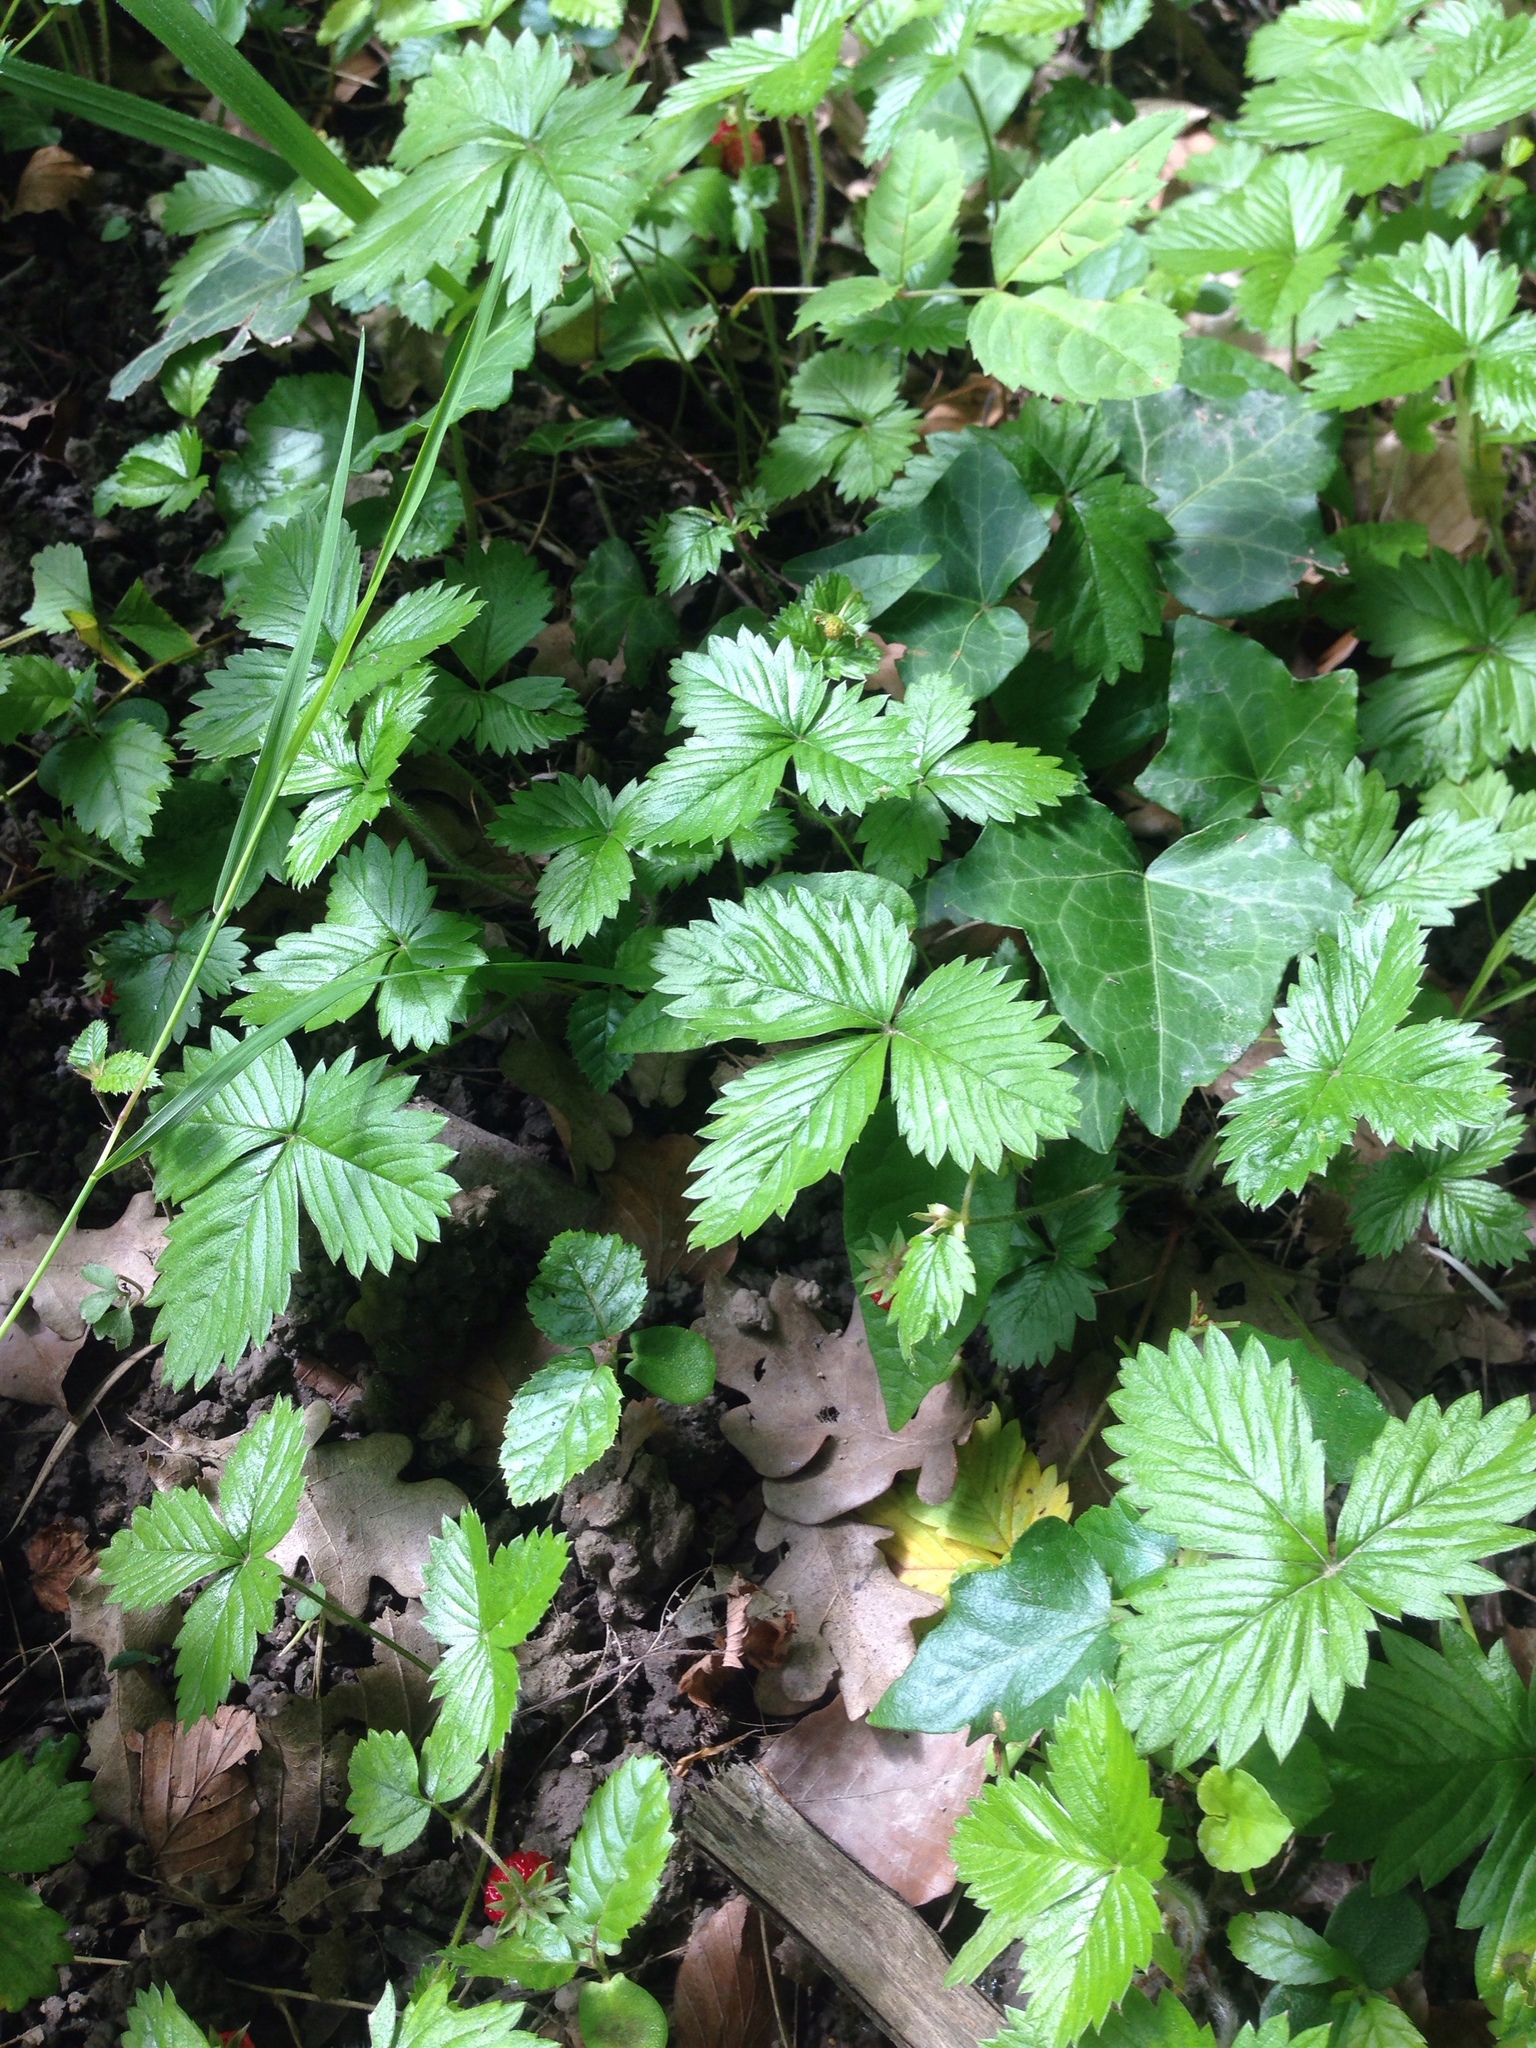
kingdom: Plantae
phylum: Tracheophyta
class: Magnoliopsida
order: Rosales
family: Rosaceae
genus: Fragaria
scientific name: Fragaria vesca
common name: Wild strawberry
